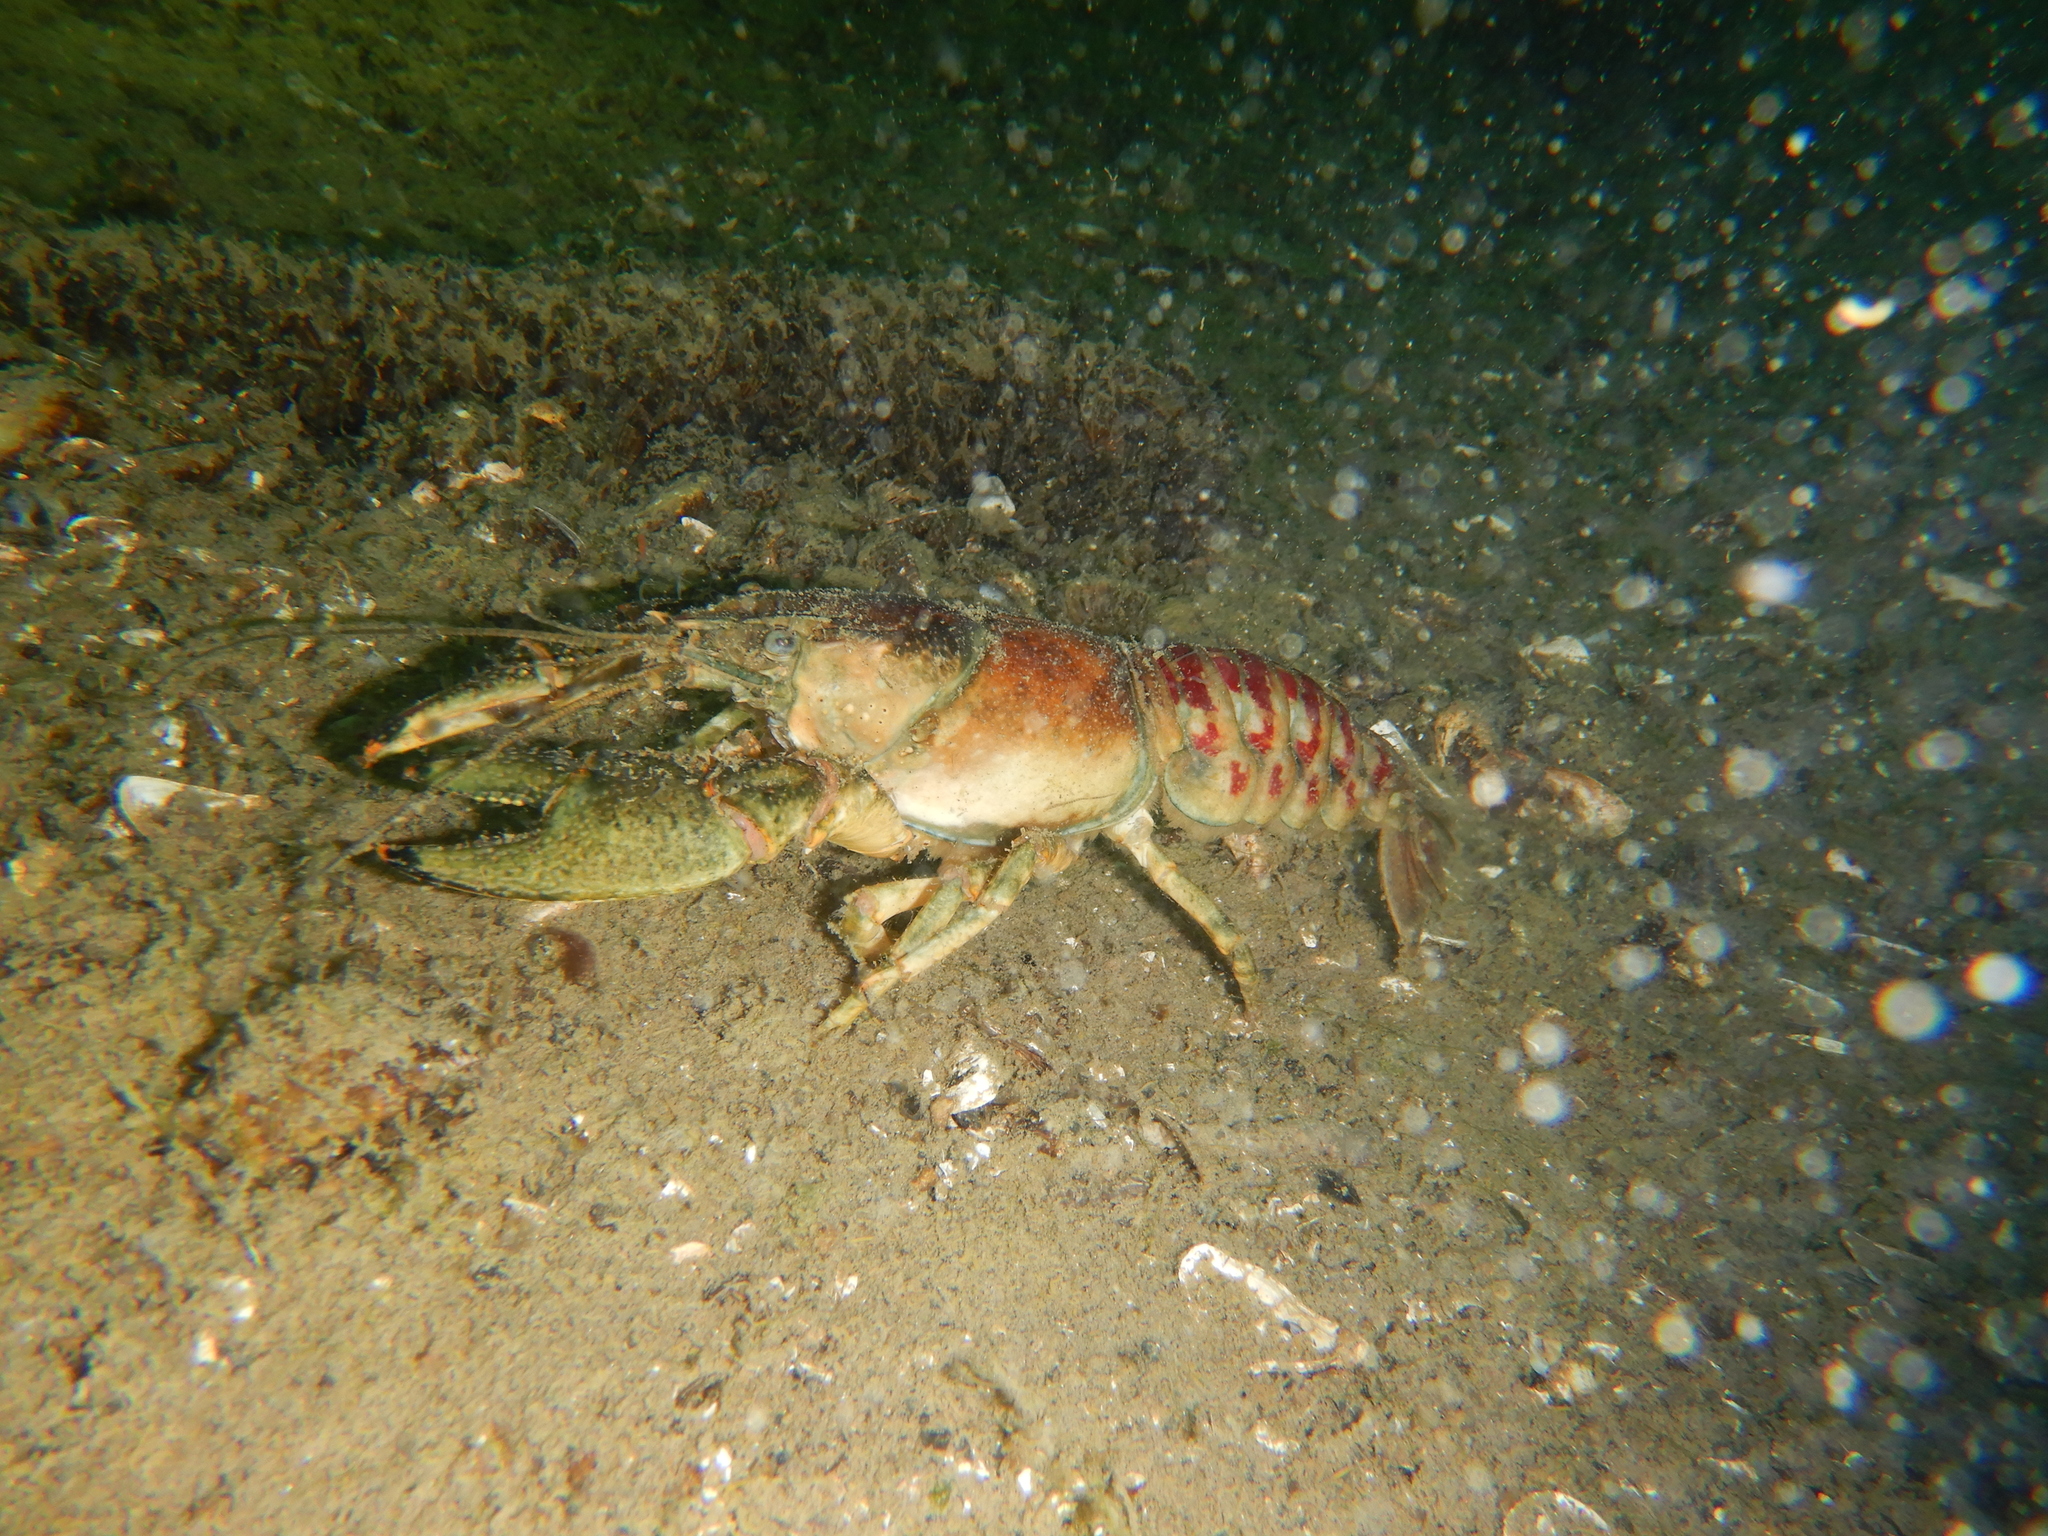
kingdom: Animalia
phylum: Arthropoda
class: Malacostraca
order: Decapoda
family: Cambaridae
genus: Faxonius
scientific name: Faxonius limosus
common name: American crayfish
